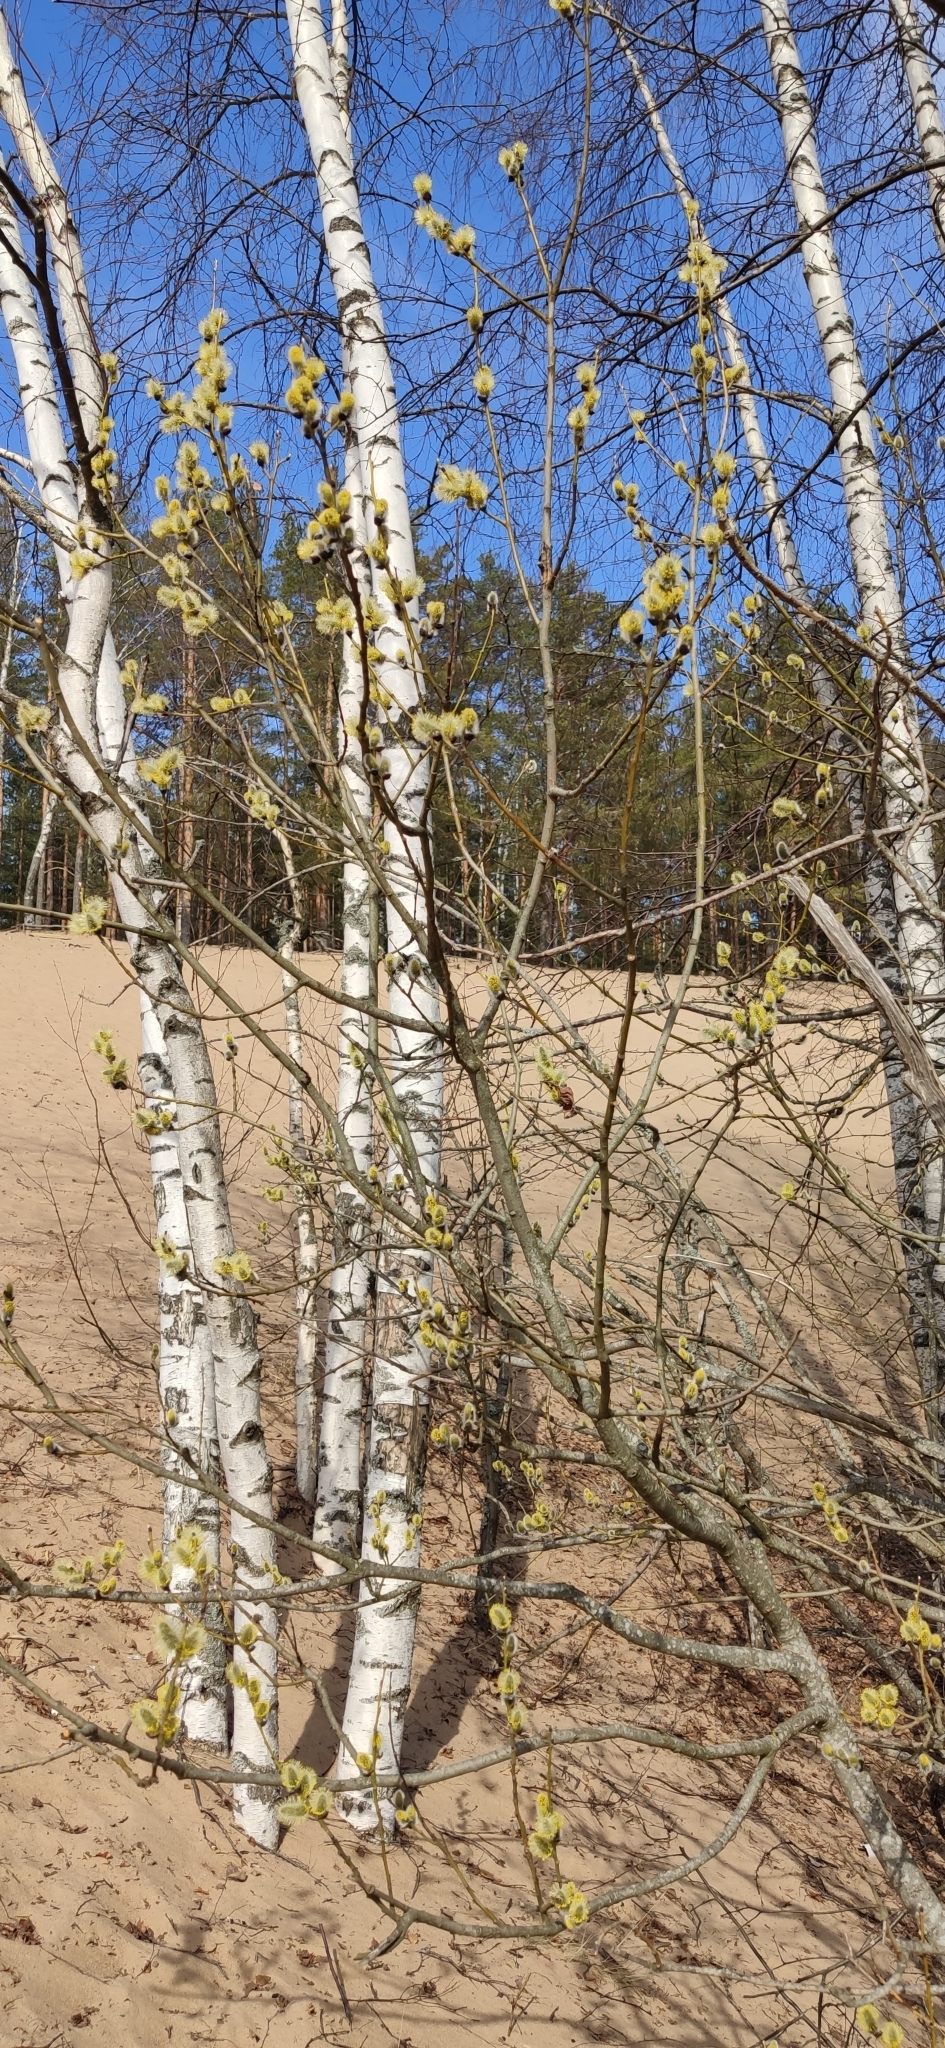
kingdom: Plantae
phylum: Tracheophyta
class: Magnoliopsida
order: Malpighiales
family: Salicaceae
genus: Salix
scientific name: Salix caprea
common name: Goat willow
